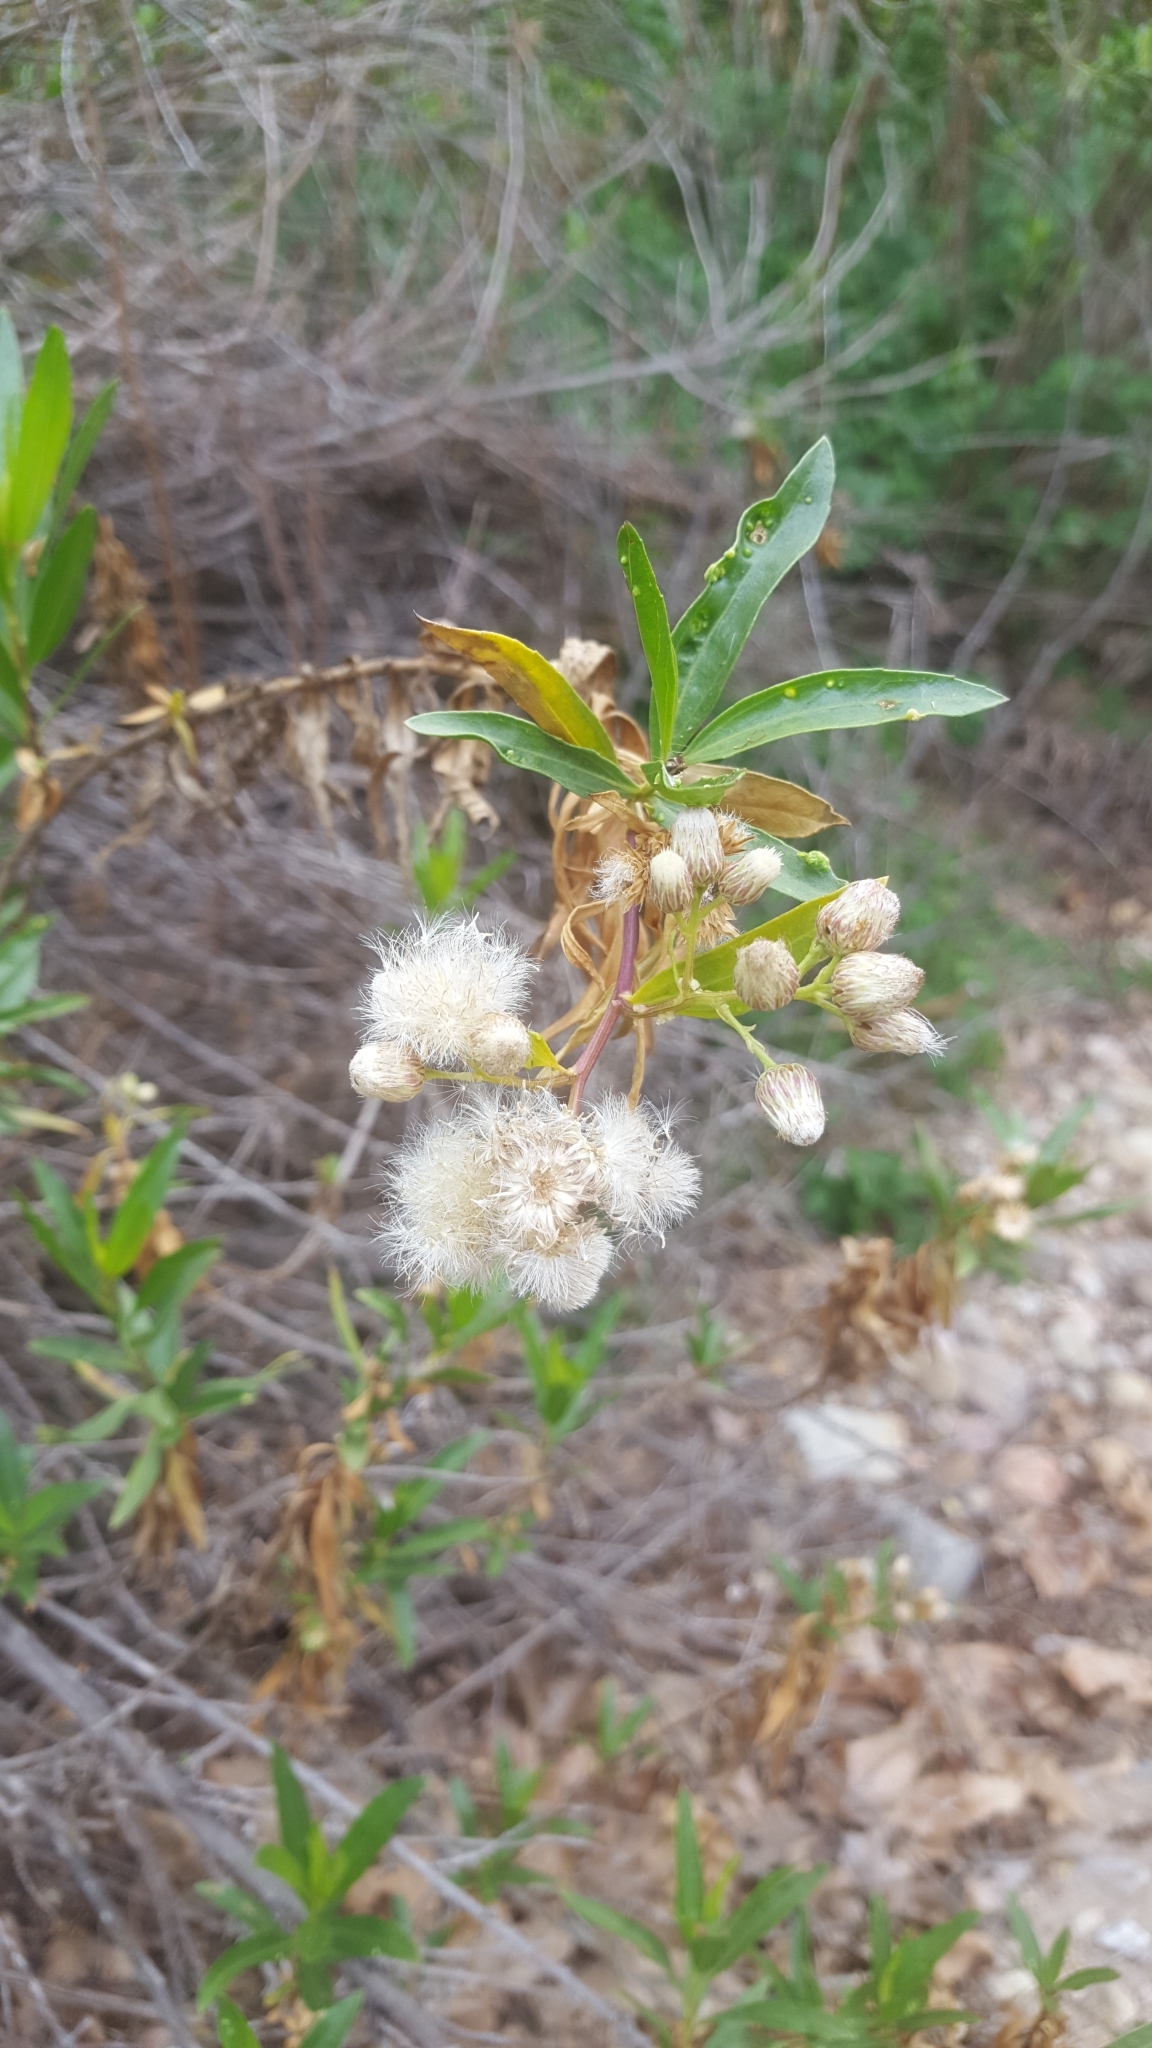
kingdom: Plantae
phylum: Tracheophyta
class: Magnoliopsida
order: Asterales
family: Asteraceae
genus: Baccharis
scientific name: Baccharis salicifolia
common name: Sticky baccharis
